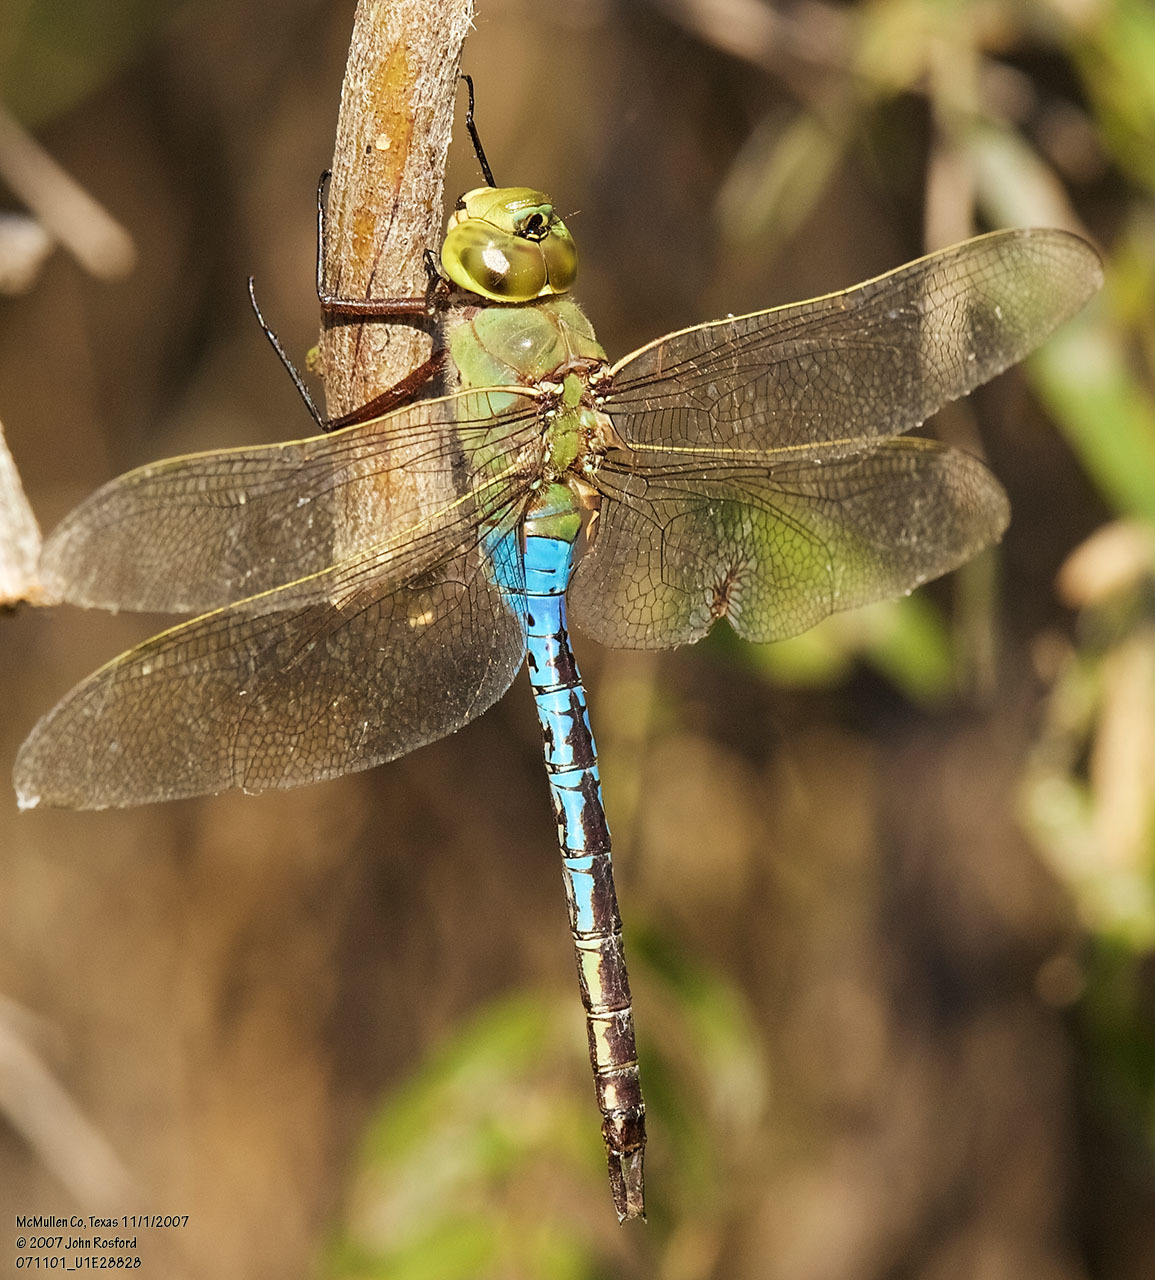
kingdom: Animalia
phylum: Arthropoda
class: Insecta
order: Odonata
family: Aeshnidae
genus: Anax
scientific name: Anax junius
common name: Common green darner
